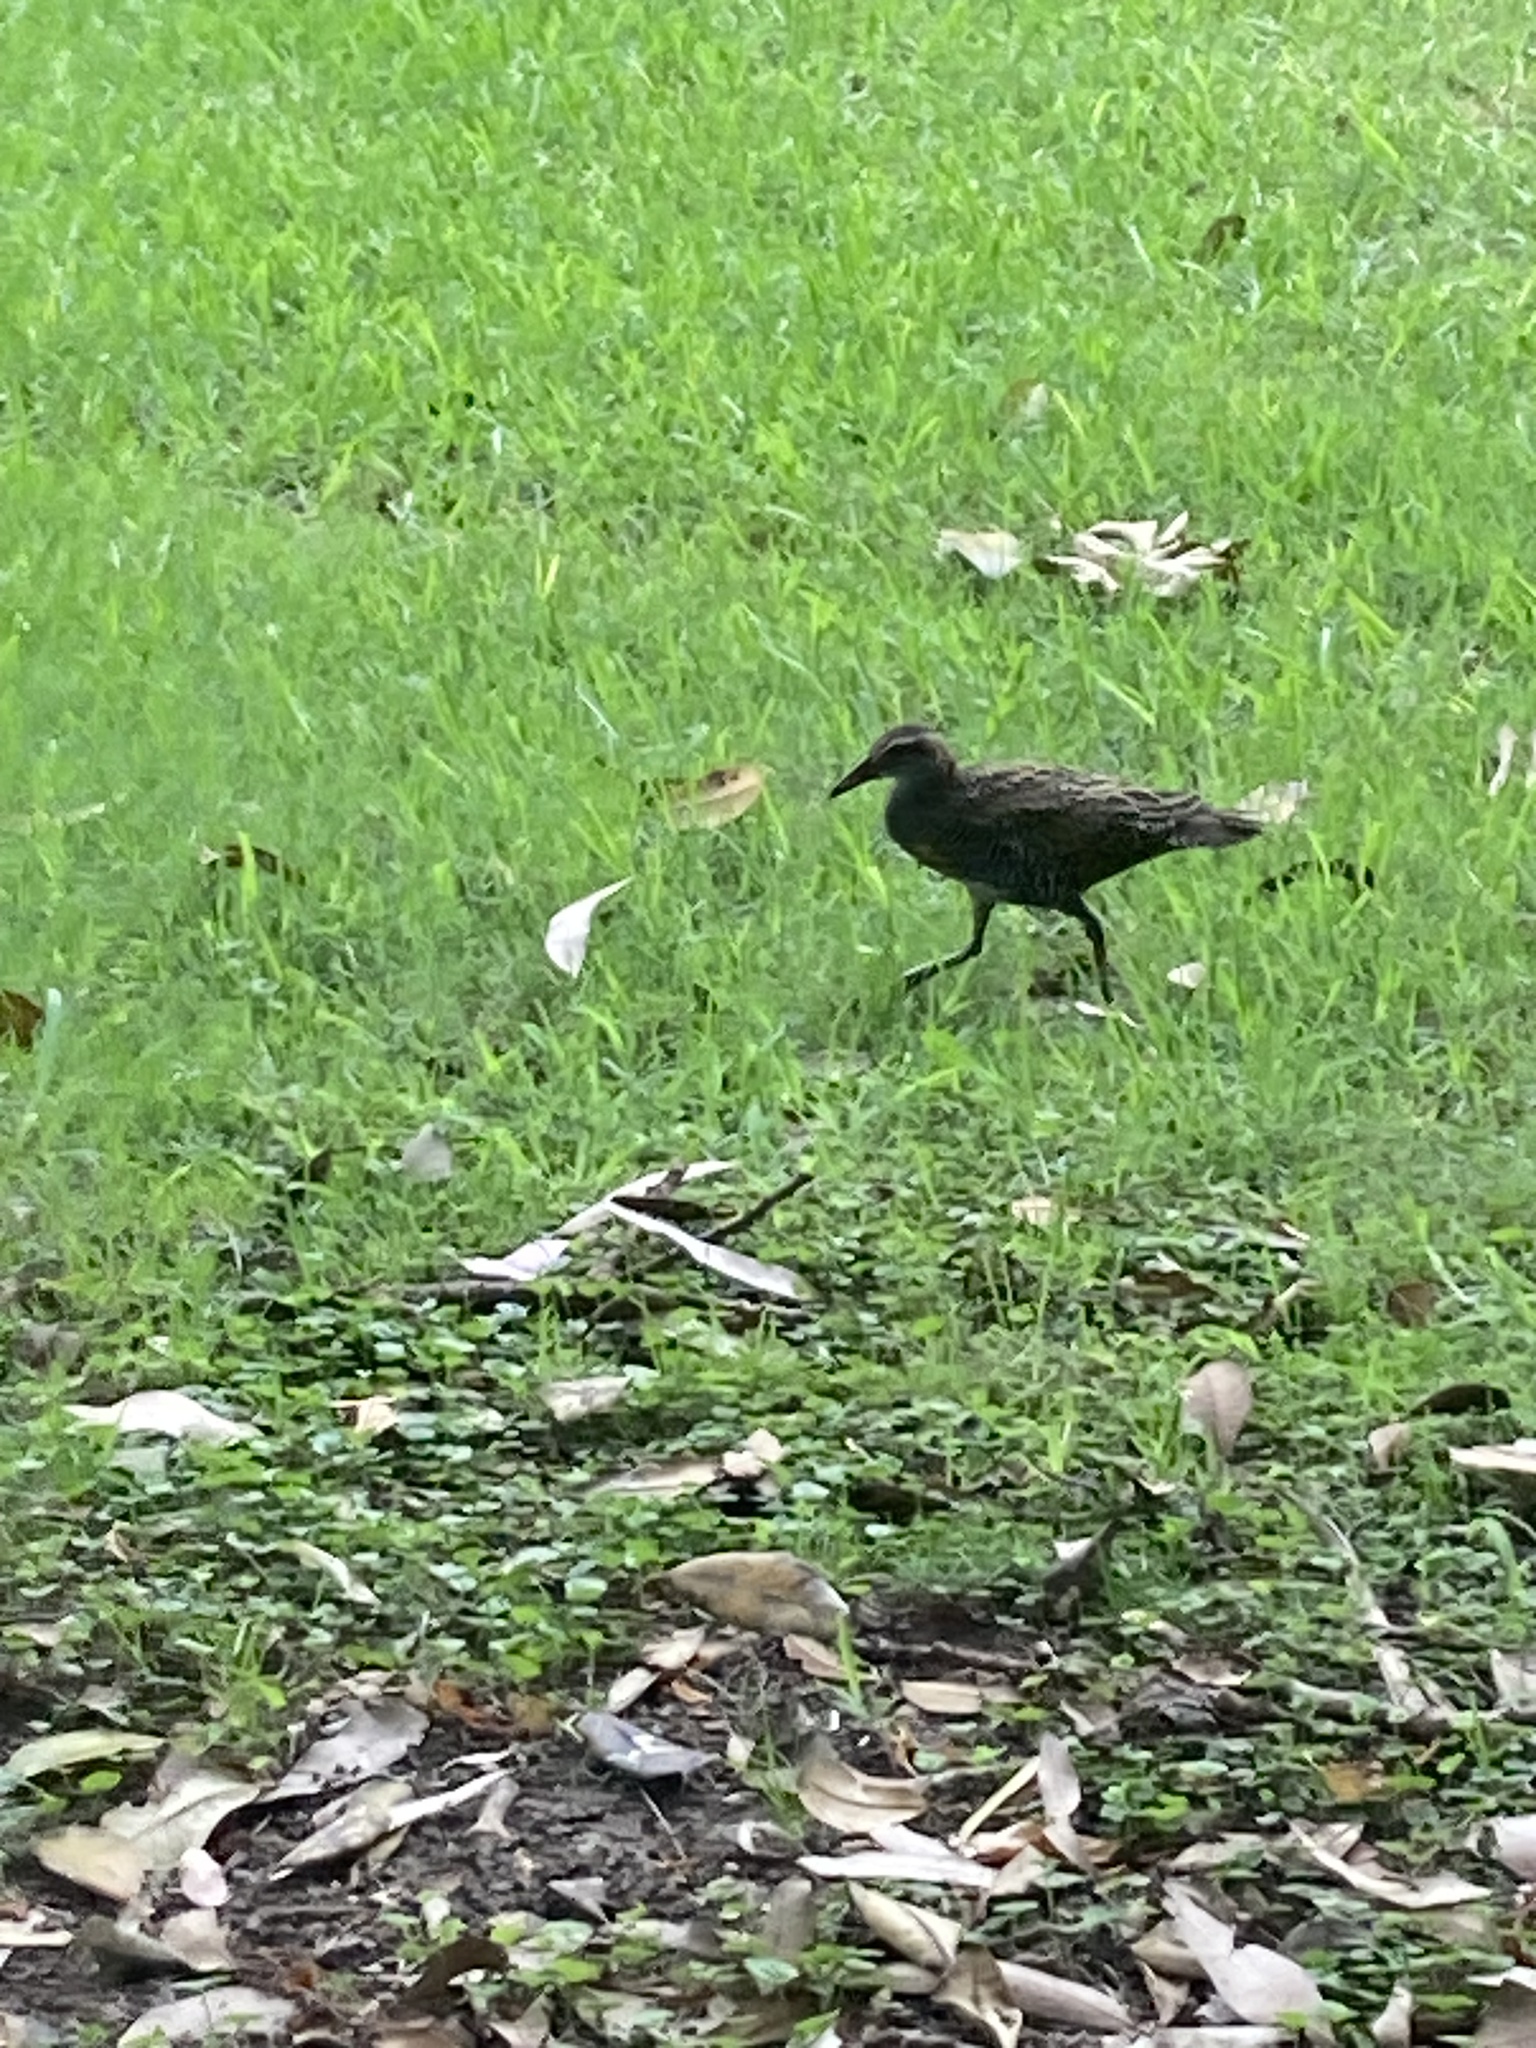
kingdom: Animalia
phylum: Chordata
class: Aves
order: Gruiformes
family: Rallidae
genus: Gallirallus
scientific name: Gallirallus philippensis
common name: Buff-banded rail
